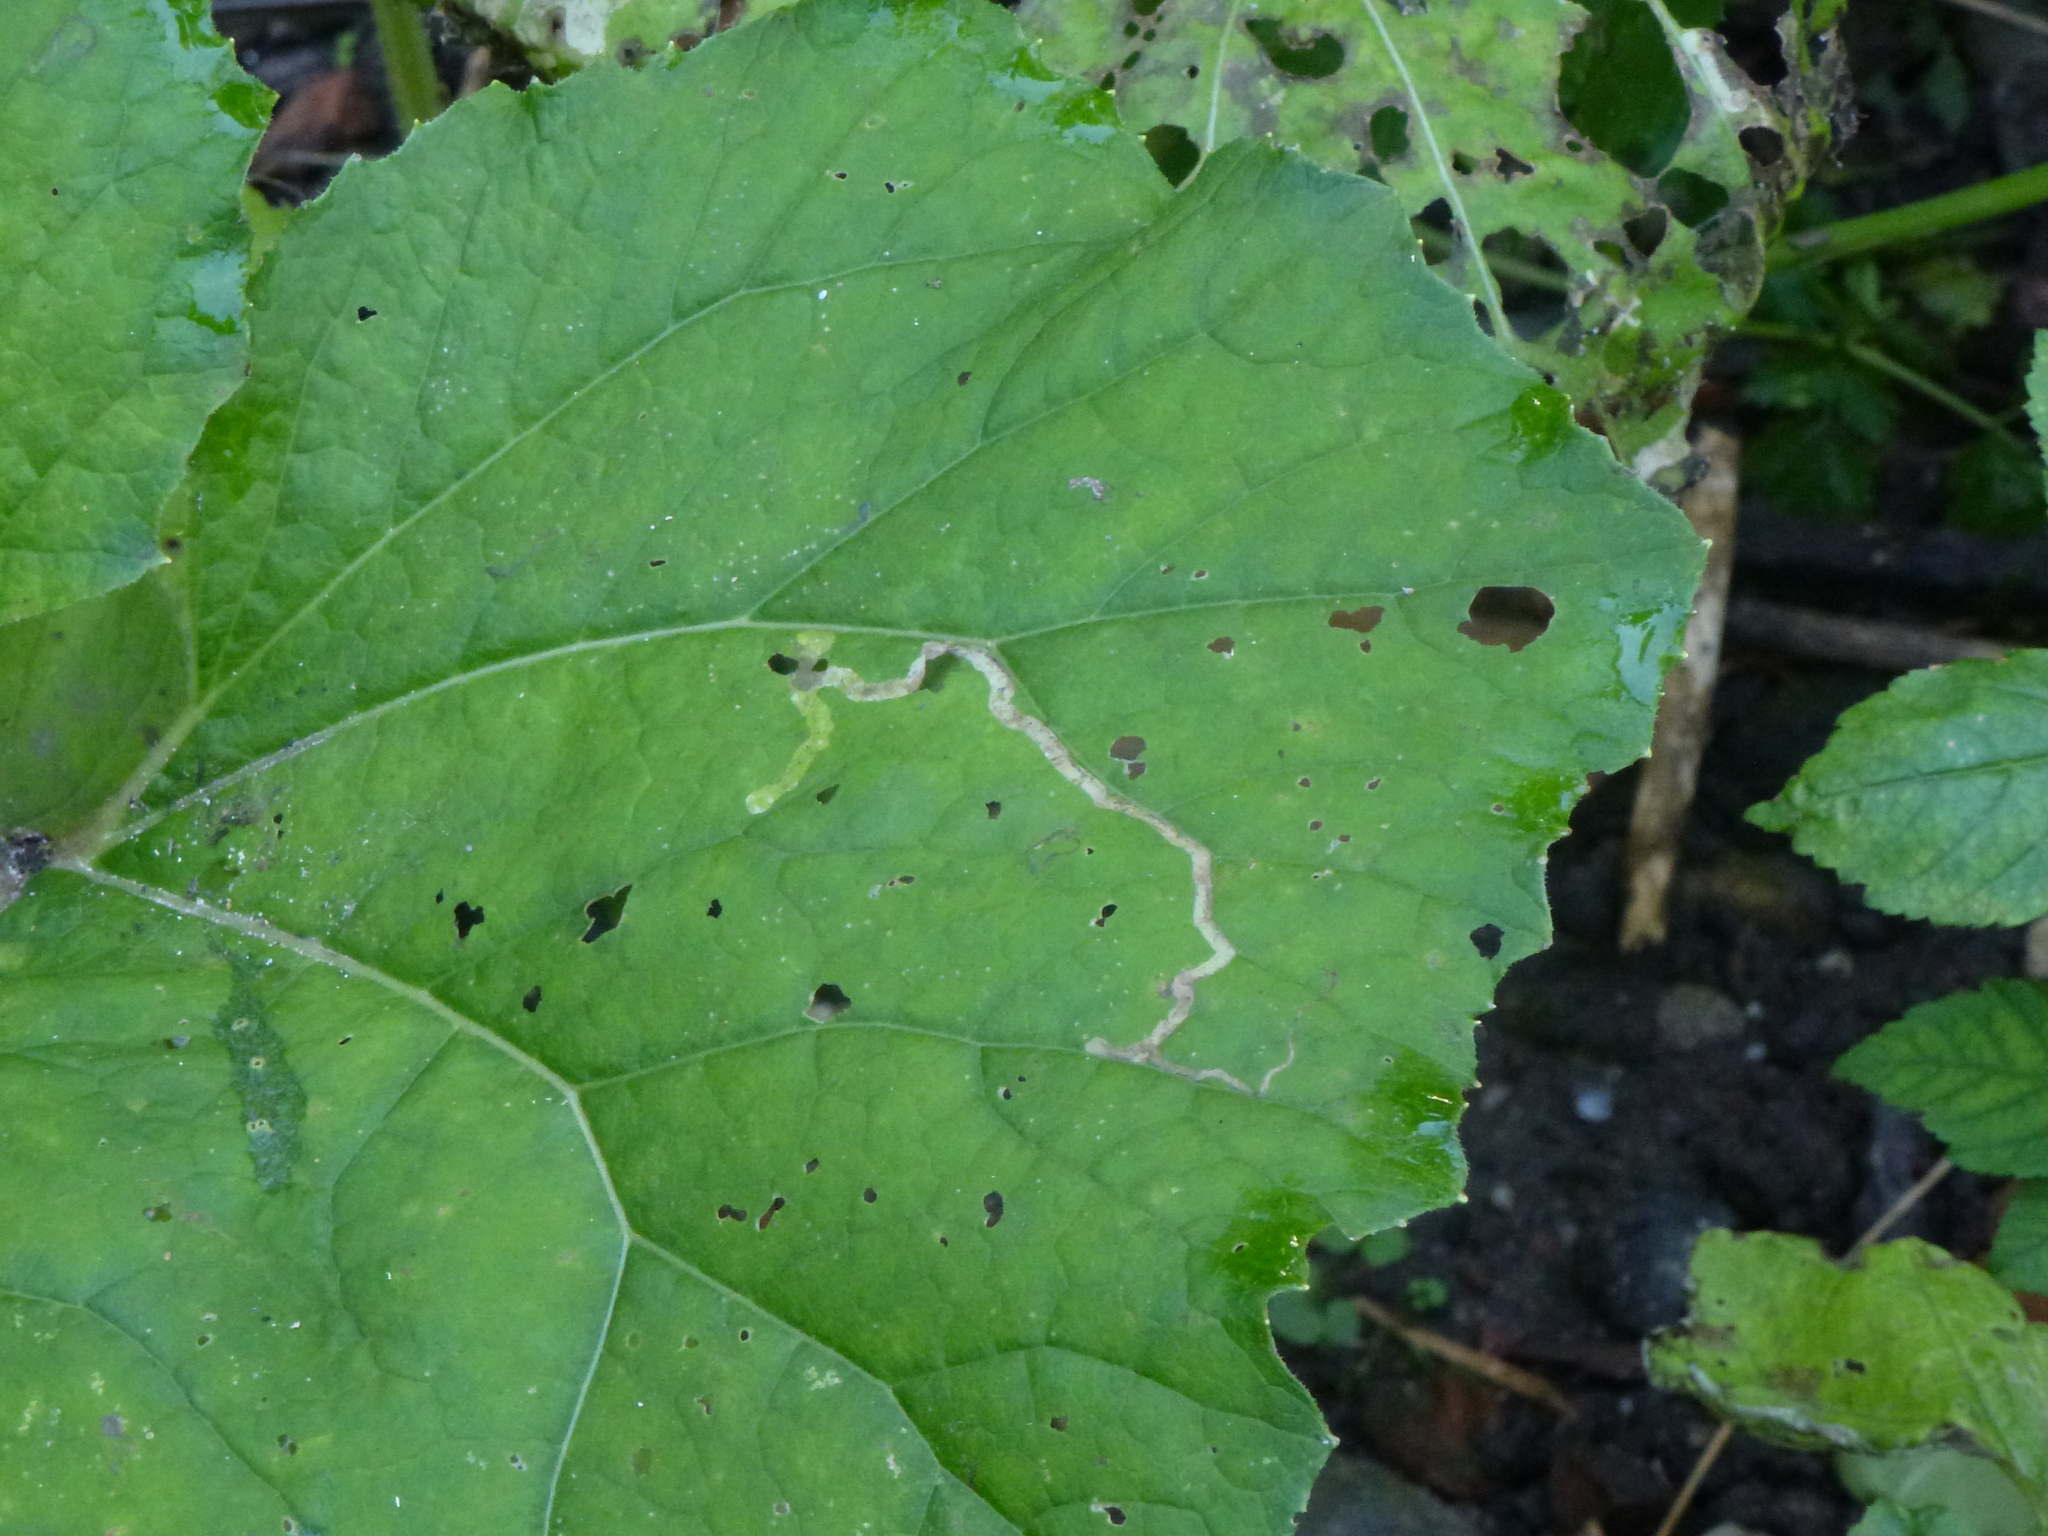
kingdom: Animalia
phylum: Arthropoda
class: Insecta
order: Diptera
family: Agromyzidae
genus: Phytomyza
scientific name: Phytomyza tussilaginis
